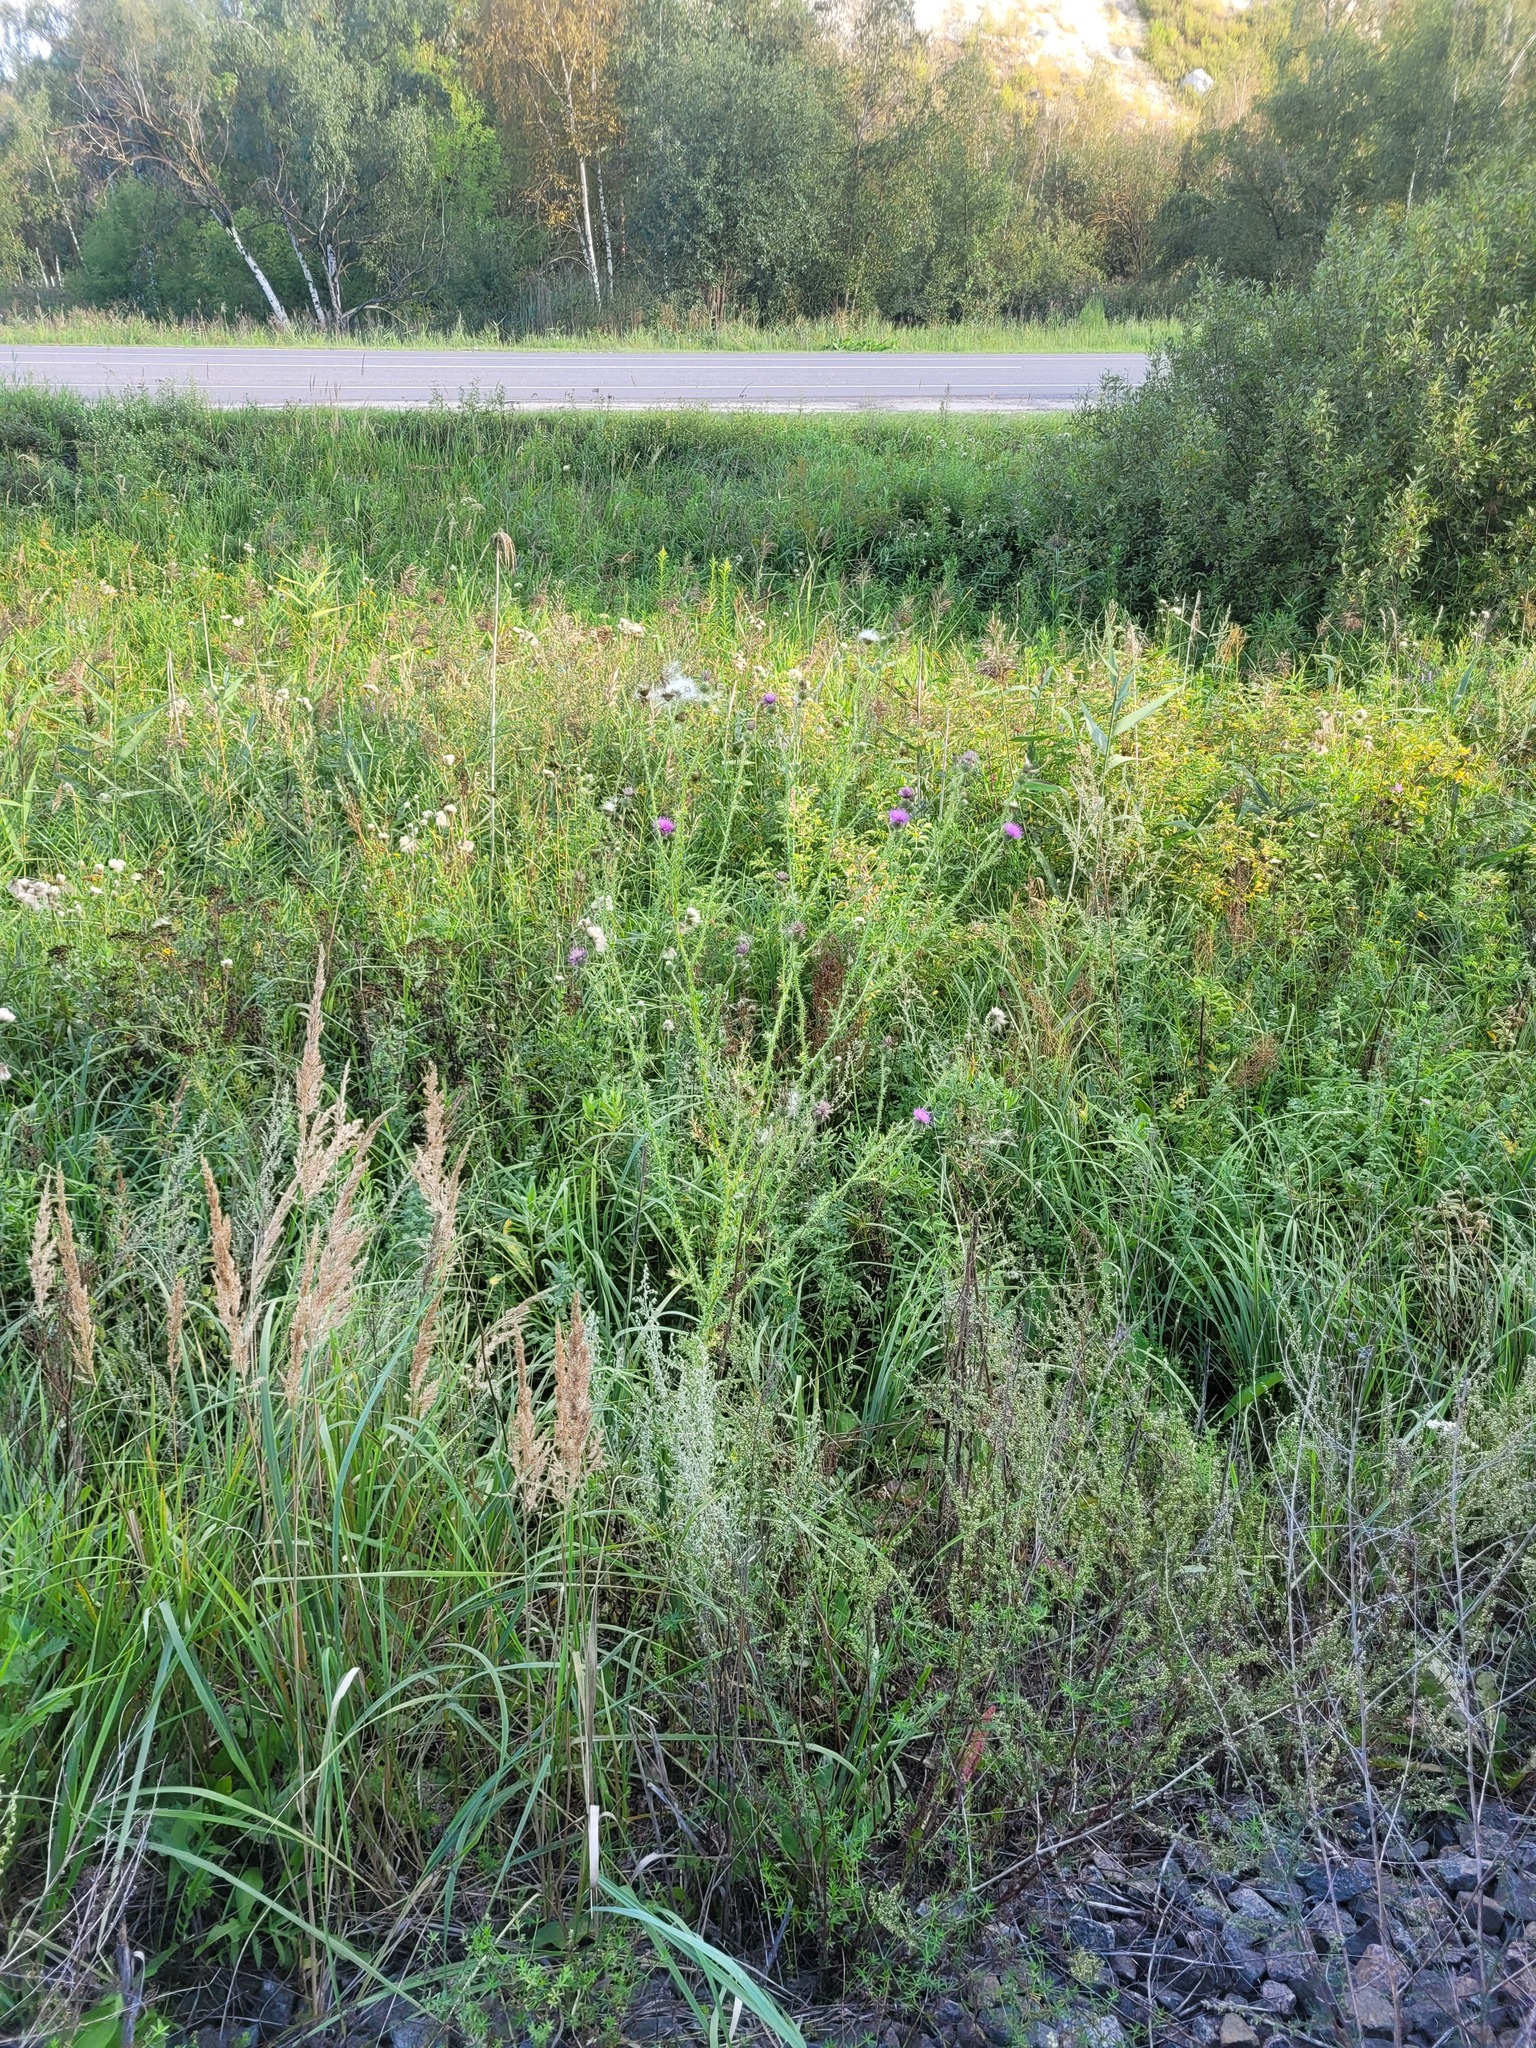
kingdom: Plantae
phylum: Tracheophyta
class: Magnoliopsida
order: Asterales
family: Asteraceae
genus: Carduus
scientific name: Carduus acanthoides
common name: Plumeless thistle
